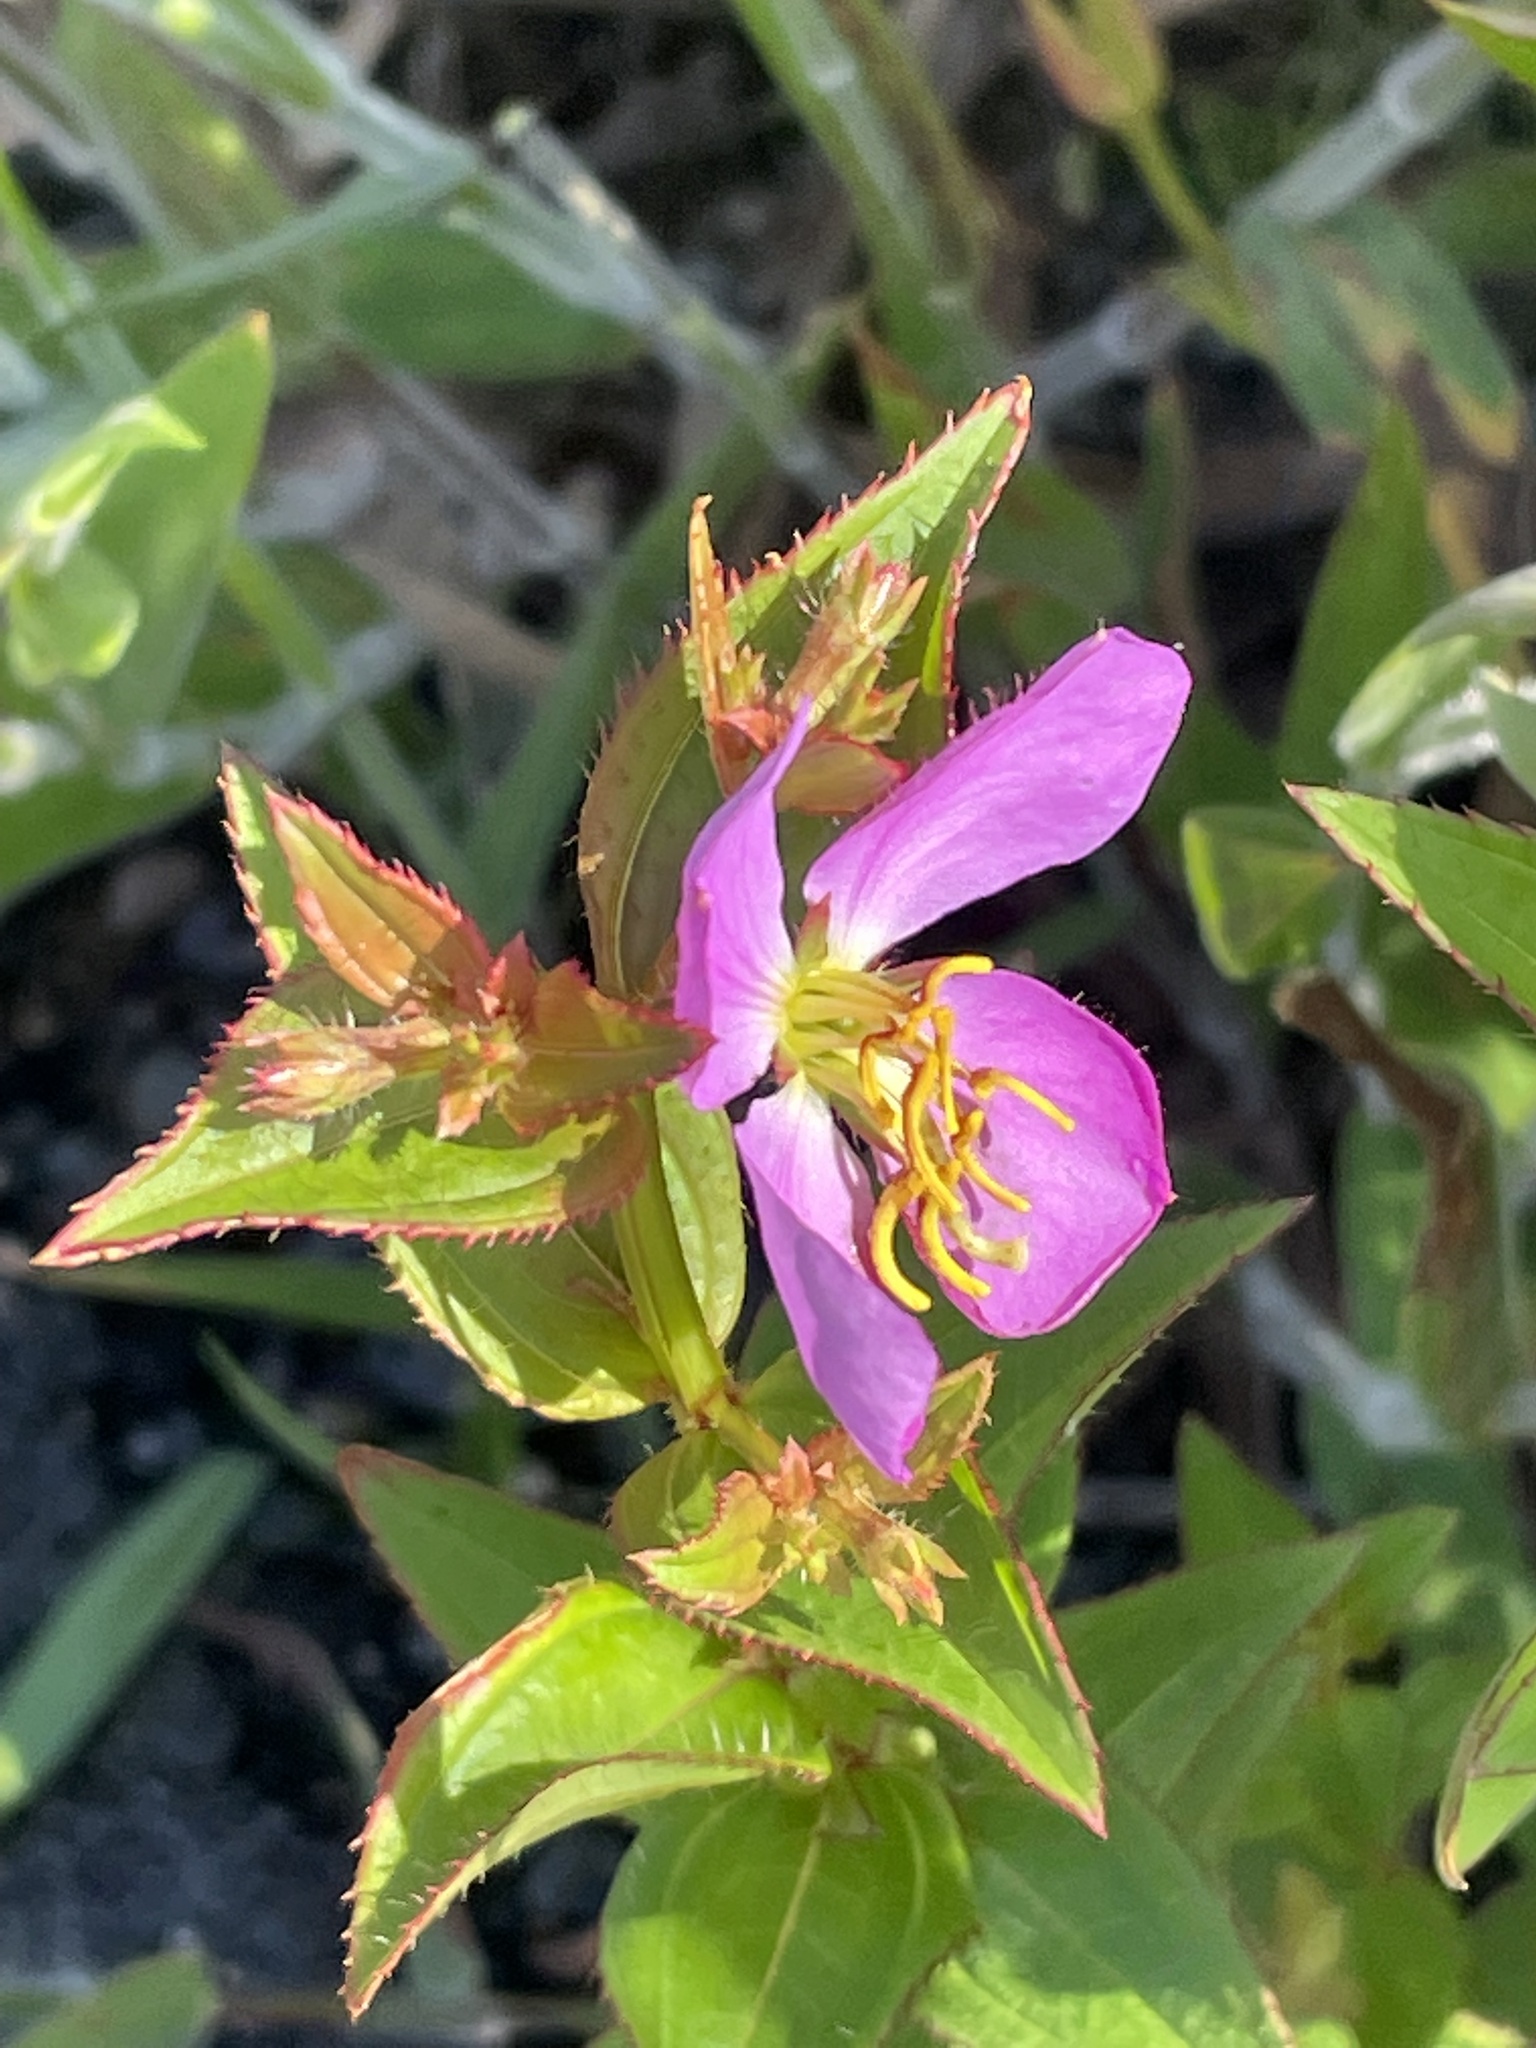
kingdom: Plantae
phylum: Tracheophyta
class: Magnoliopsida
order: Myrtales
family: Melastomataceae
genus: Rhexia
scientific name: Rhexia nashii
